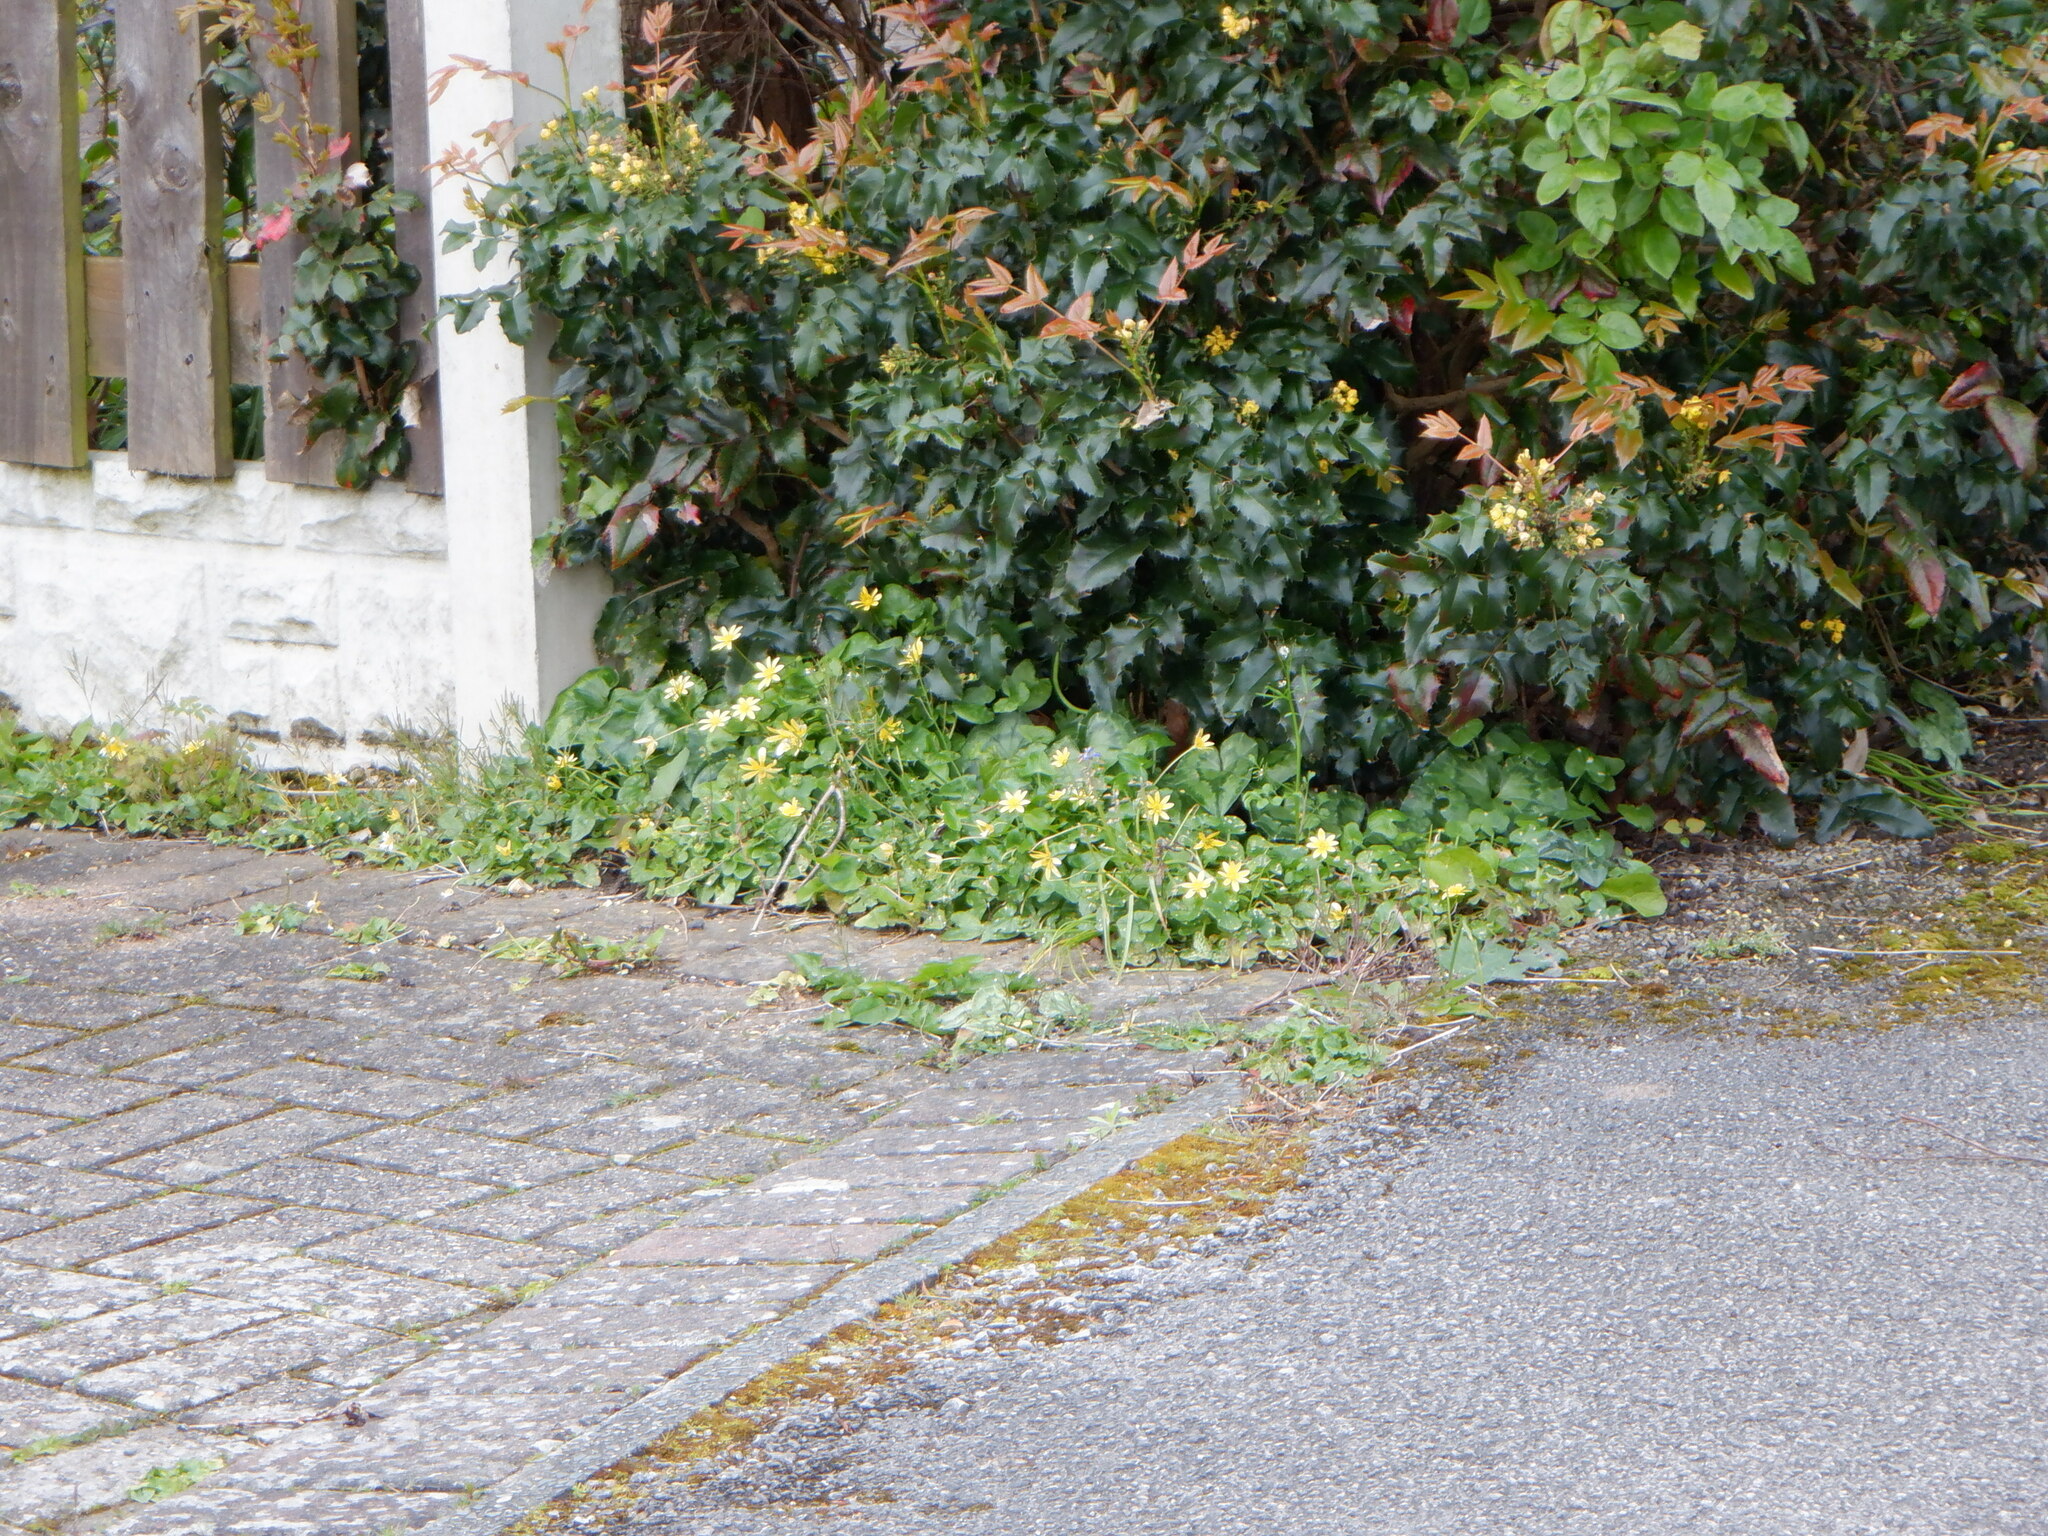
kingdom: Plantae
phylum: Tracheophyta
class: Magnoliopsida
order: Ranunculales
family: Ranunculaceae
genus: Ficaria
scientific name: Ficaria verna
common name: Lesser celandine
